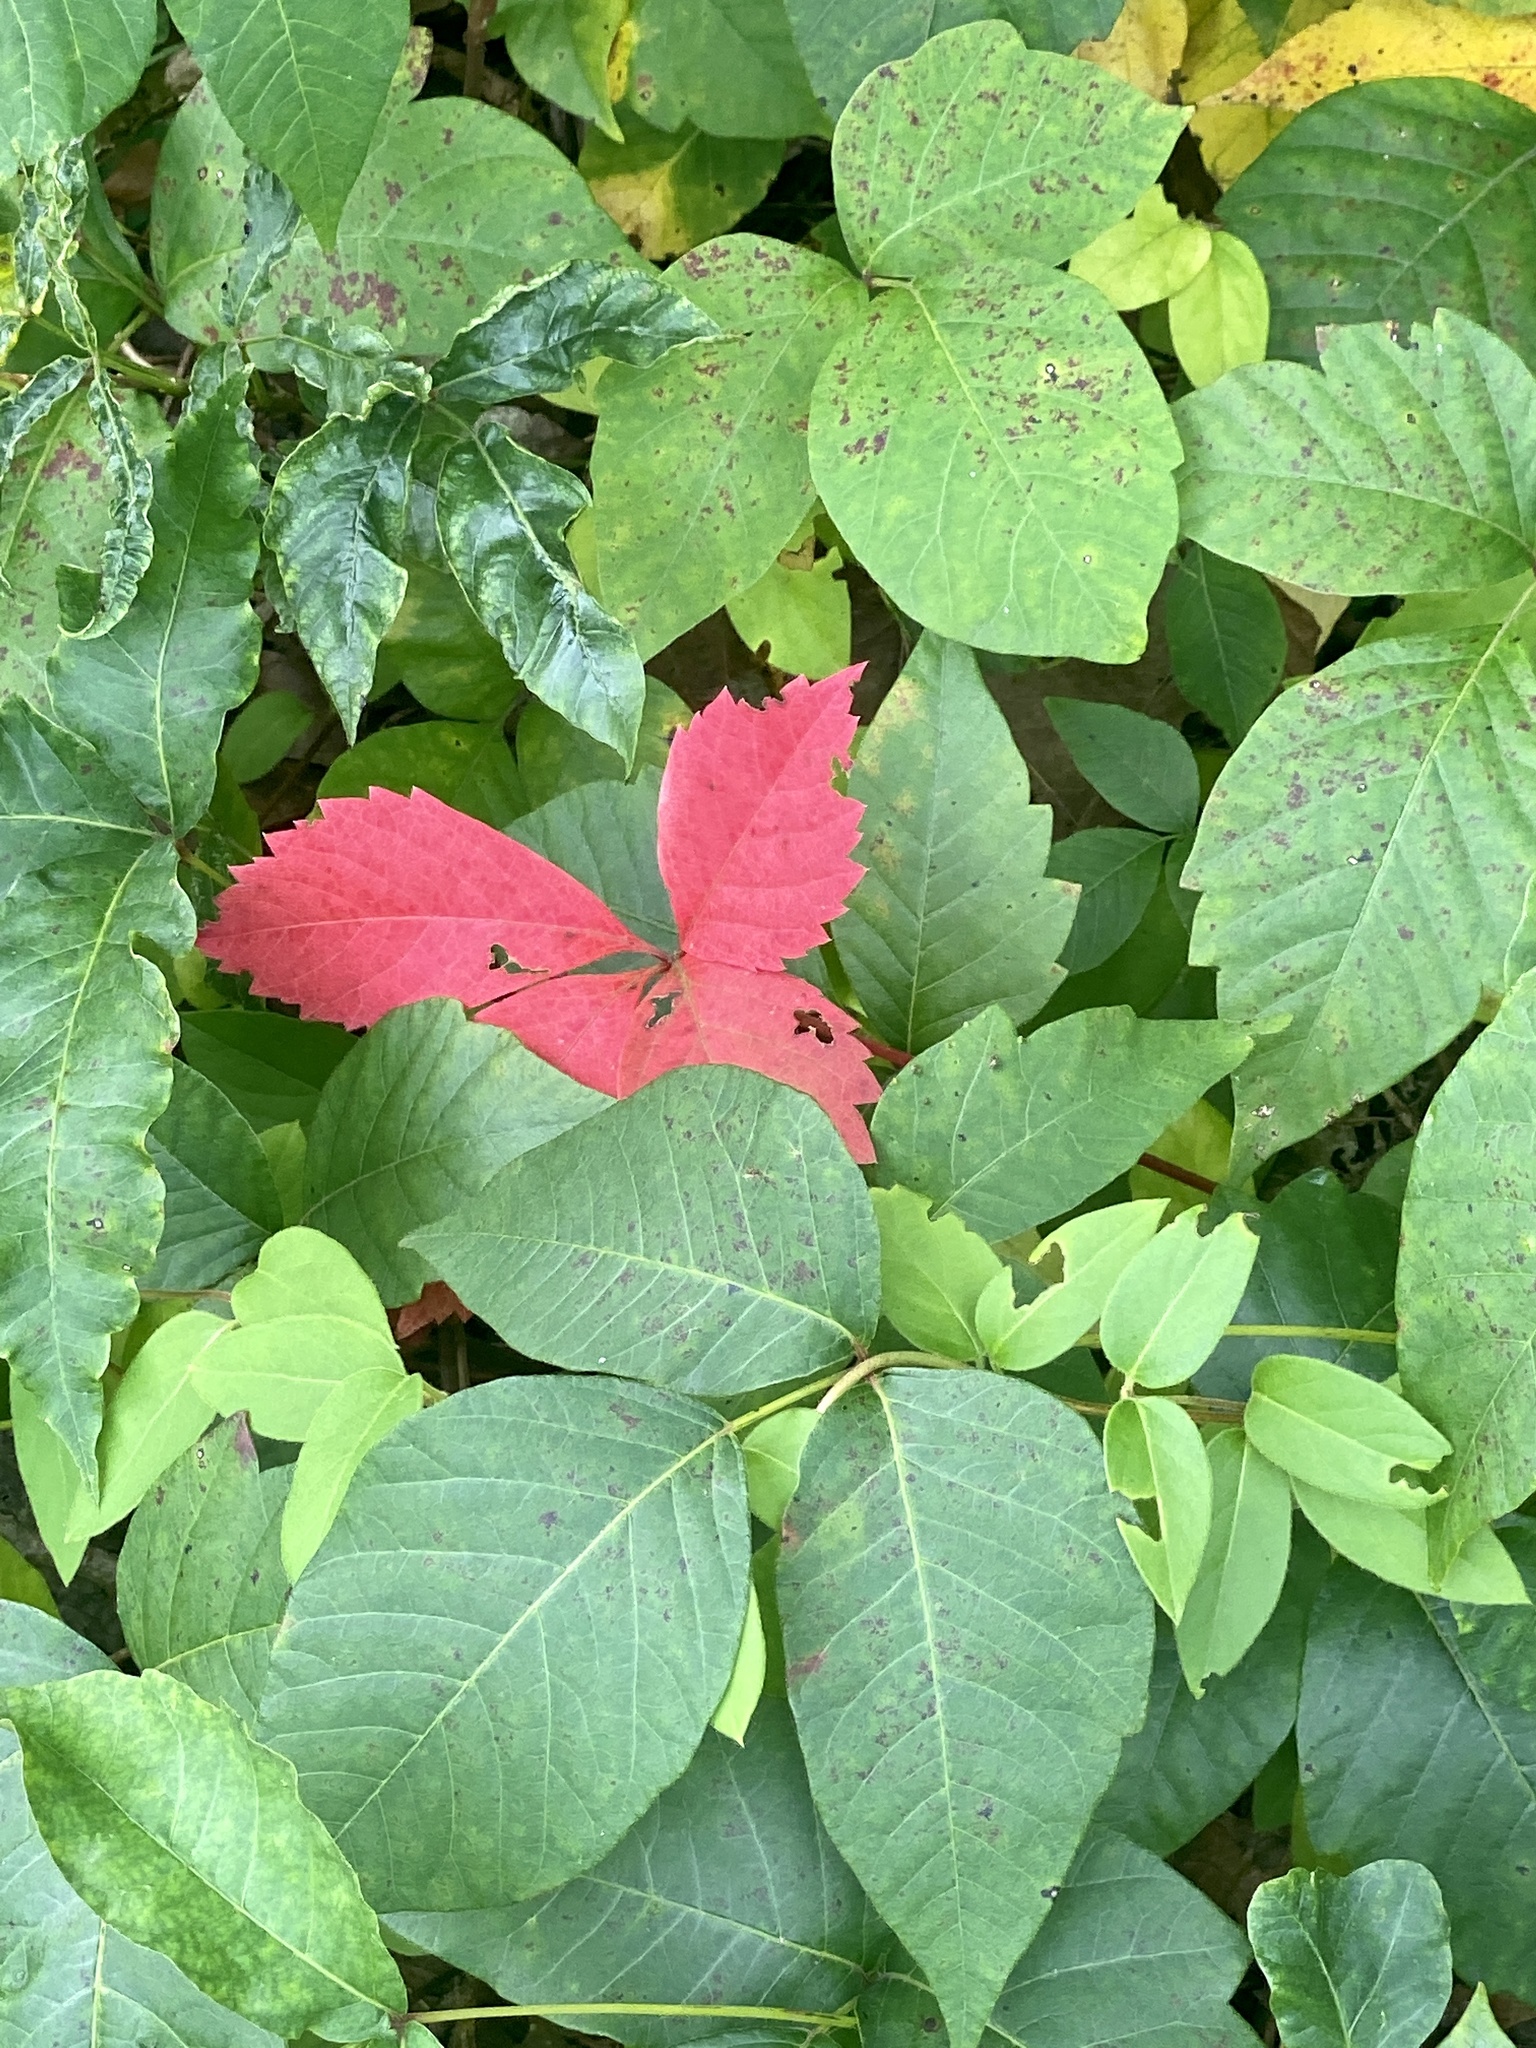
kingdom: Plantae
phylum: Tracheophyta
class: Magnoliopsida
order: Sapindales
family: Anacardiaceae
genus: Toxicodendron
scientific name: Toxicodendron radicans
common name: Poison ivy
